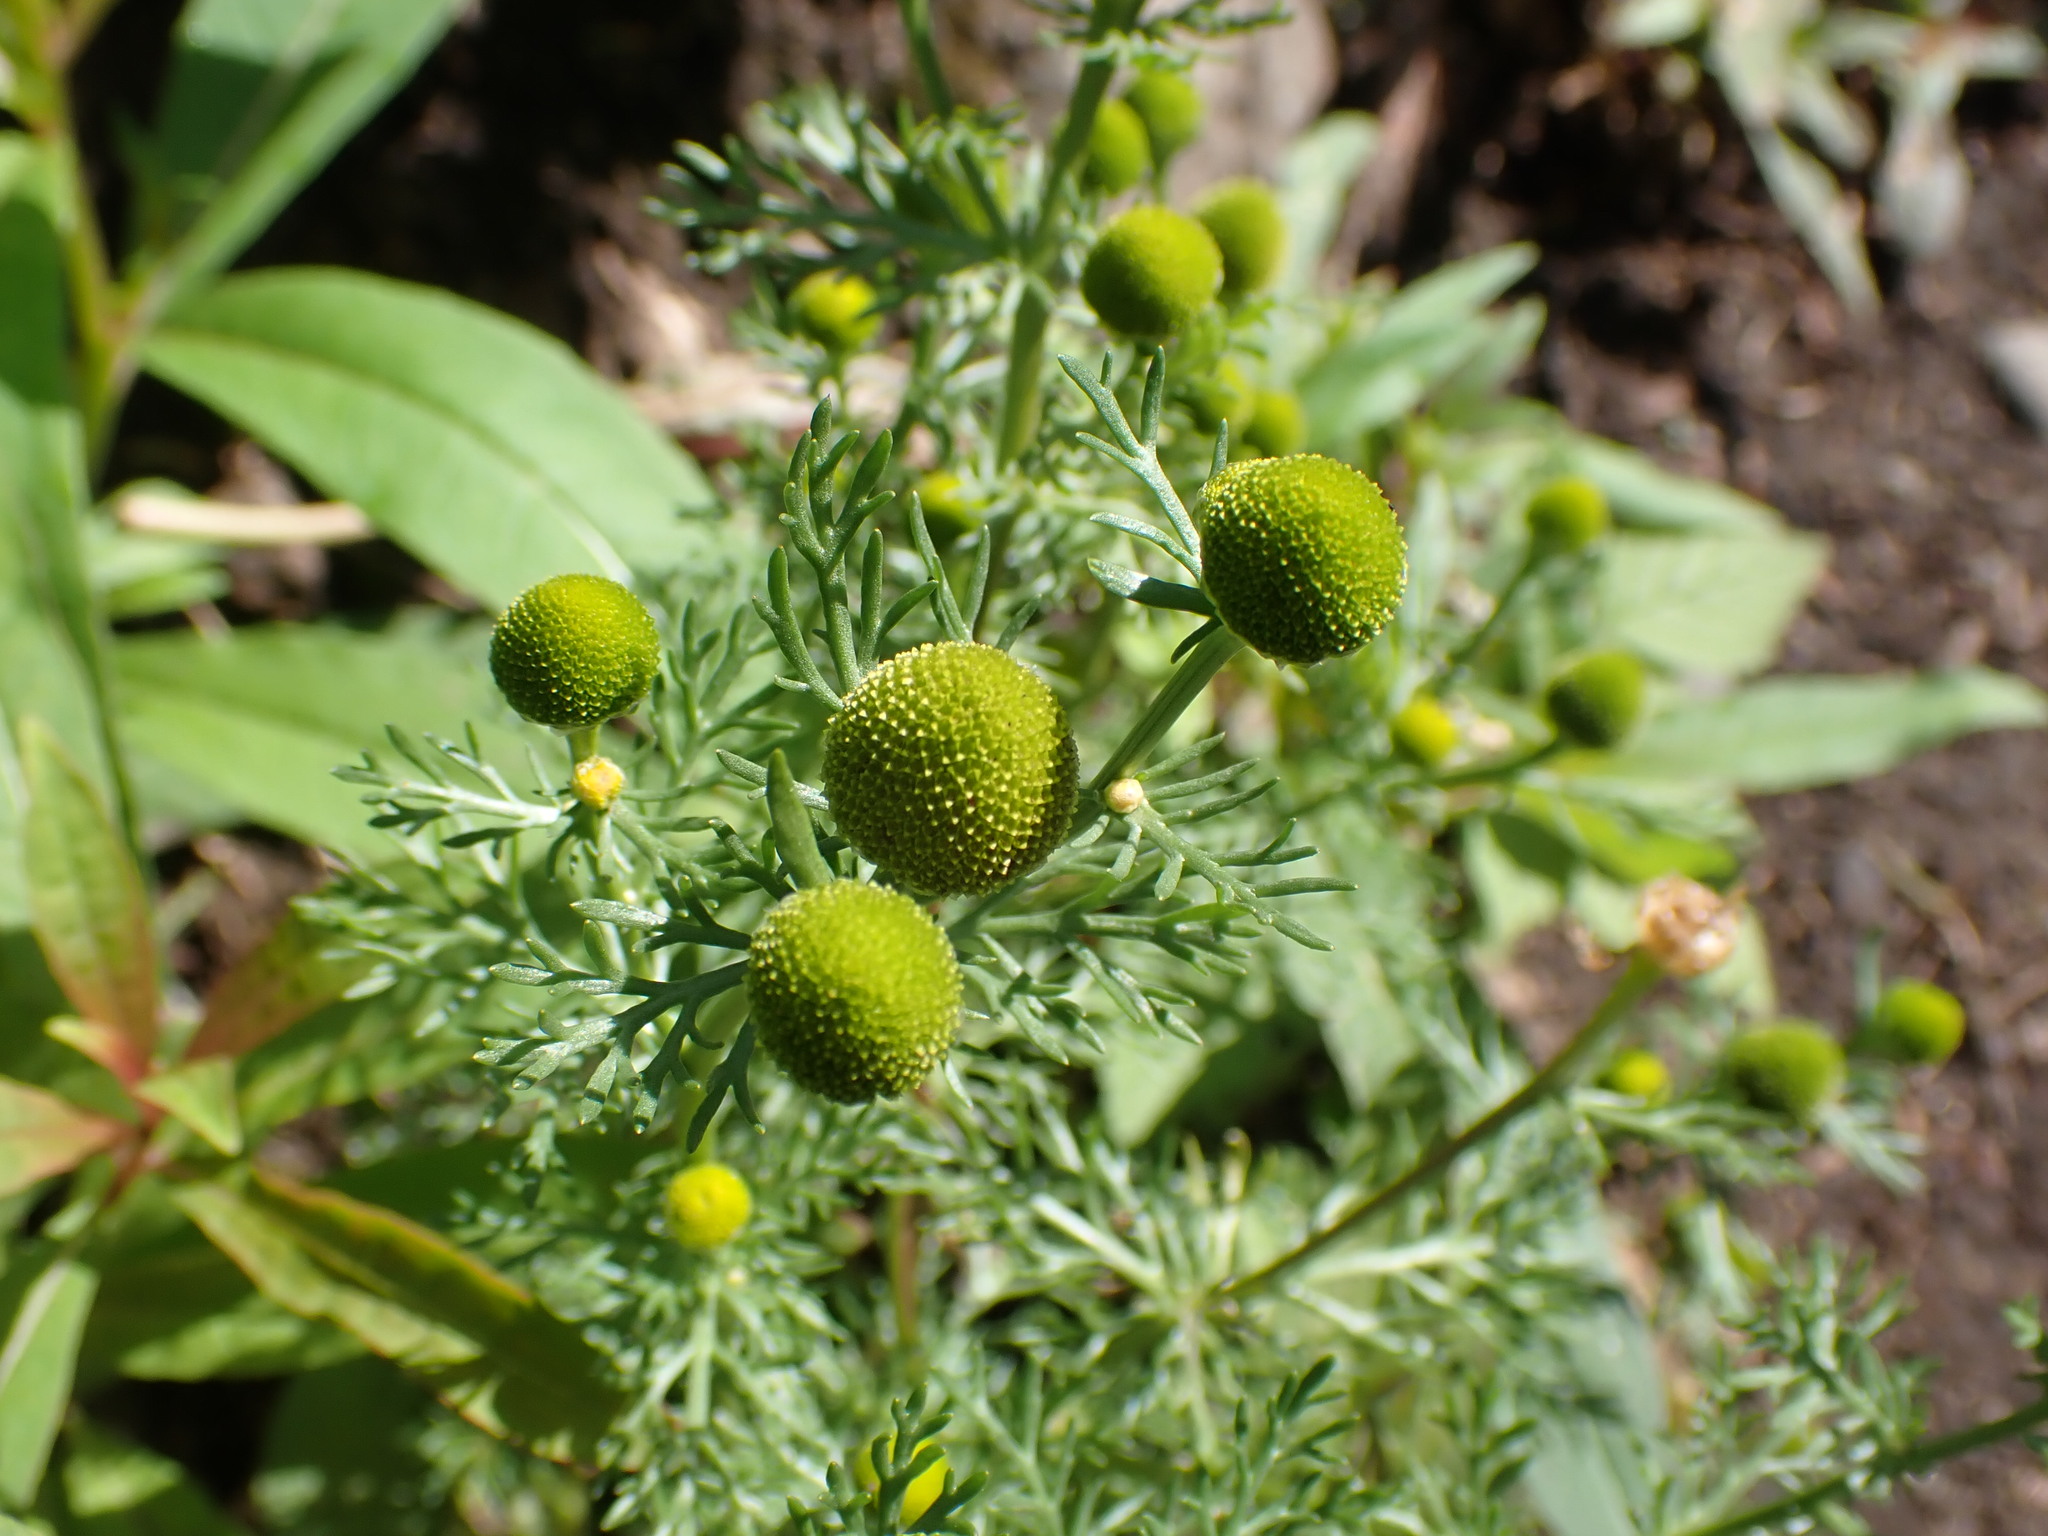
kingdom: Plantae
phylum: Tracheophyta
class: Magnoliopsida
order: Asterales
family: Asteraceae
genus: Matricaria
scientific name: Matricaria discoidea
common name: Disc mayweed
